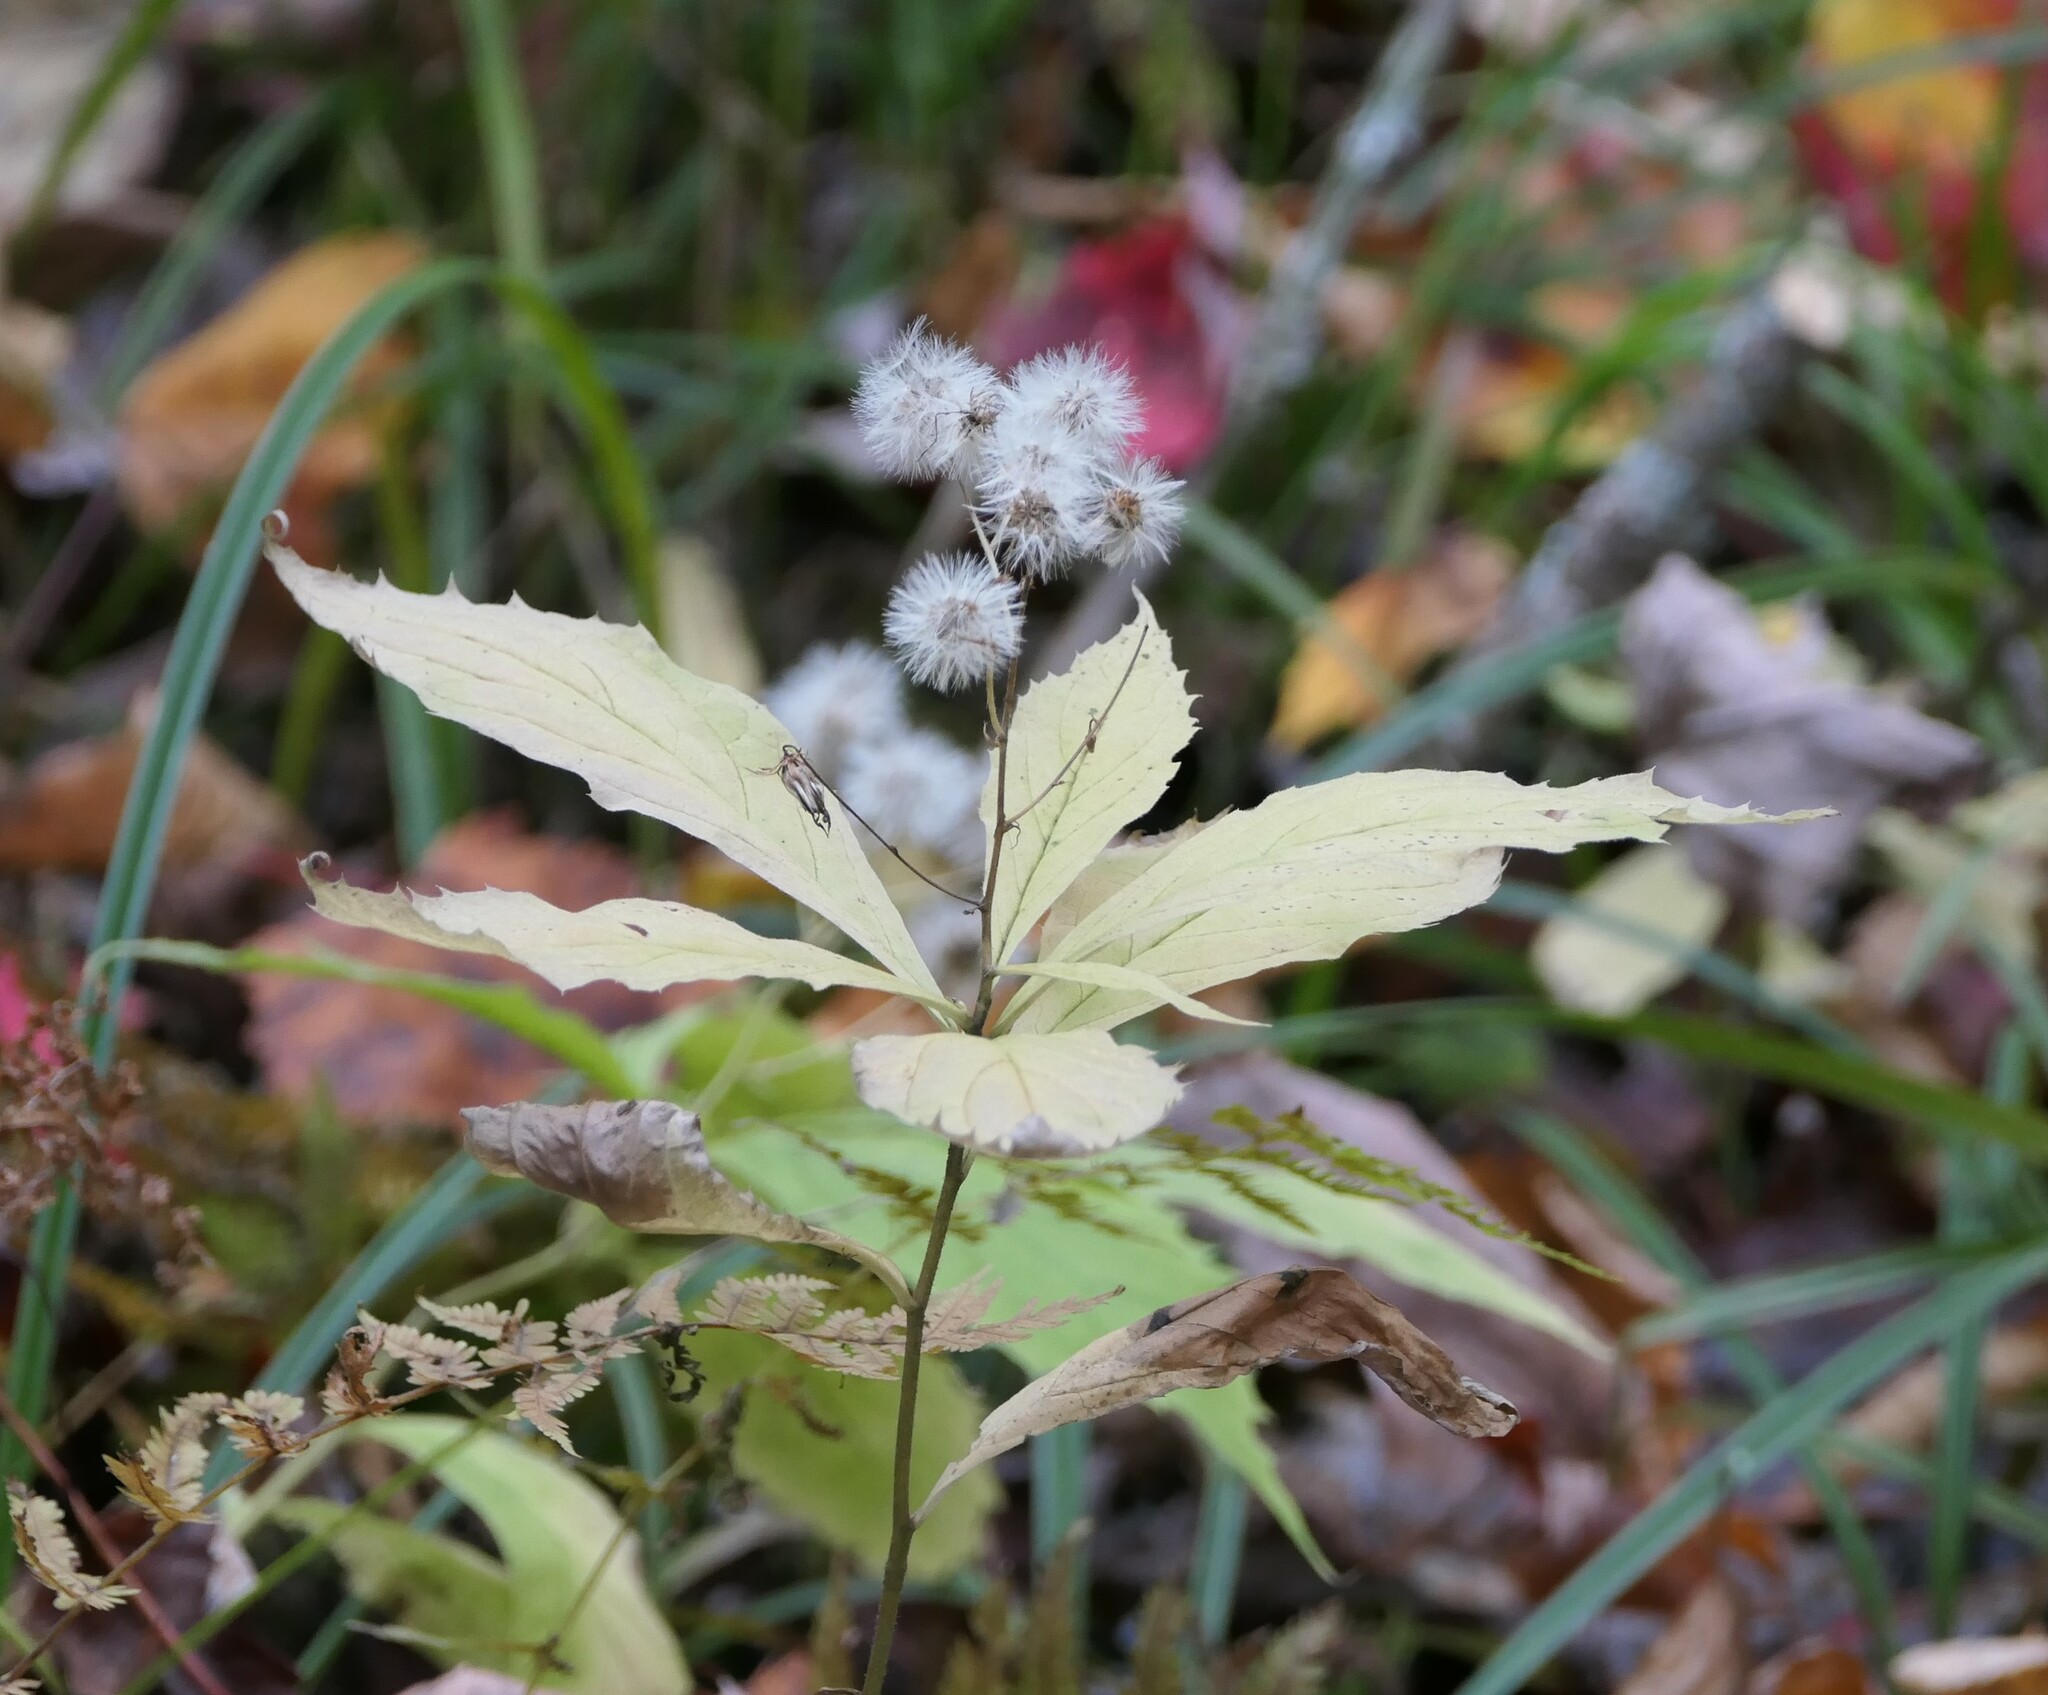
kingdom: Plantae
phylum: Tracheophyta
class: Magnoliopsida
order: Asterales
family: Asteraceae
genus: Oclemena
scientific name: Oclemena acuminata
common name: Mountain aster
